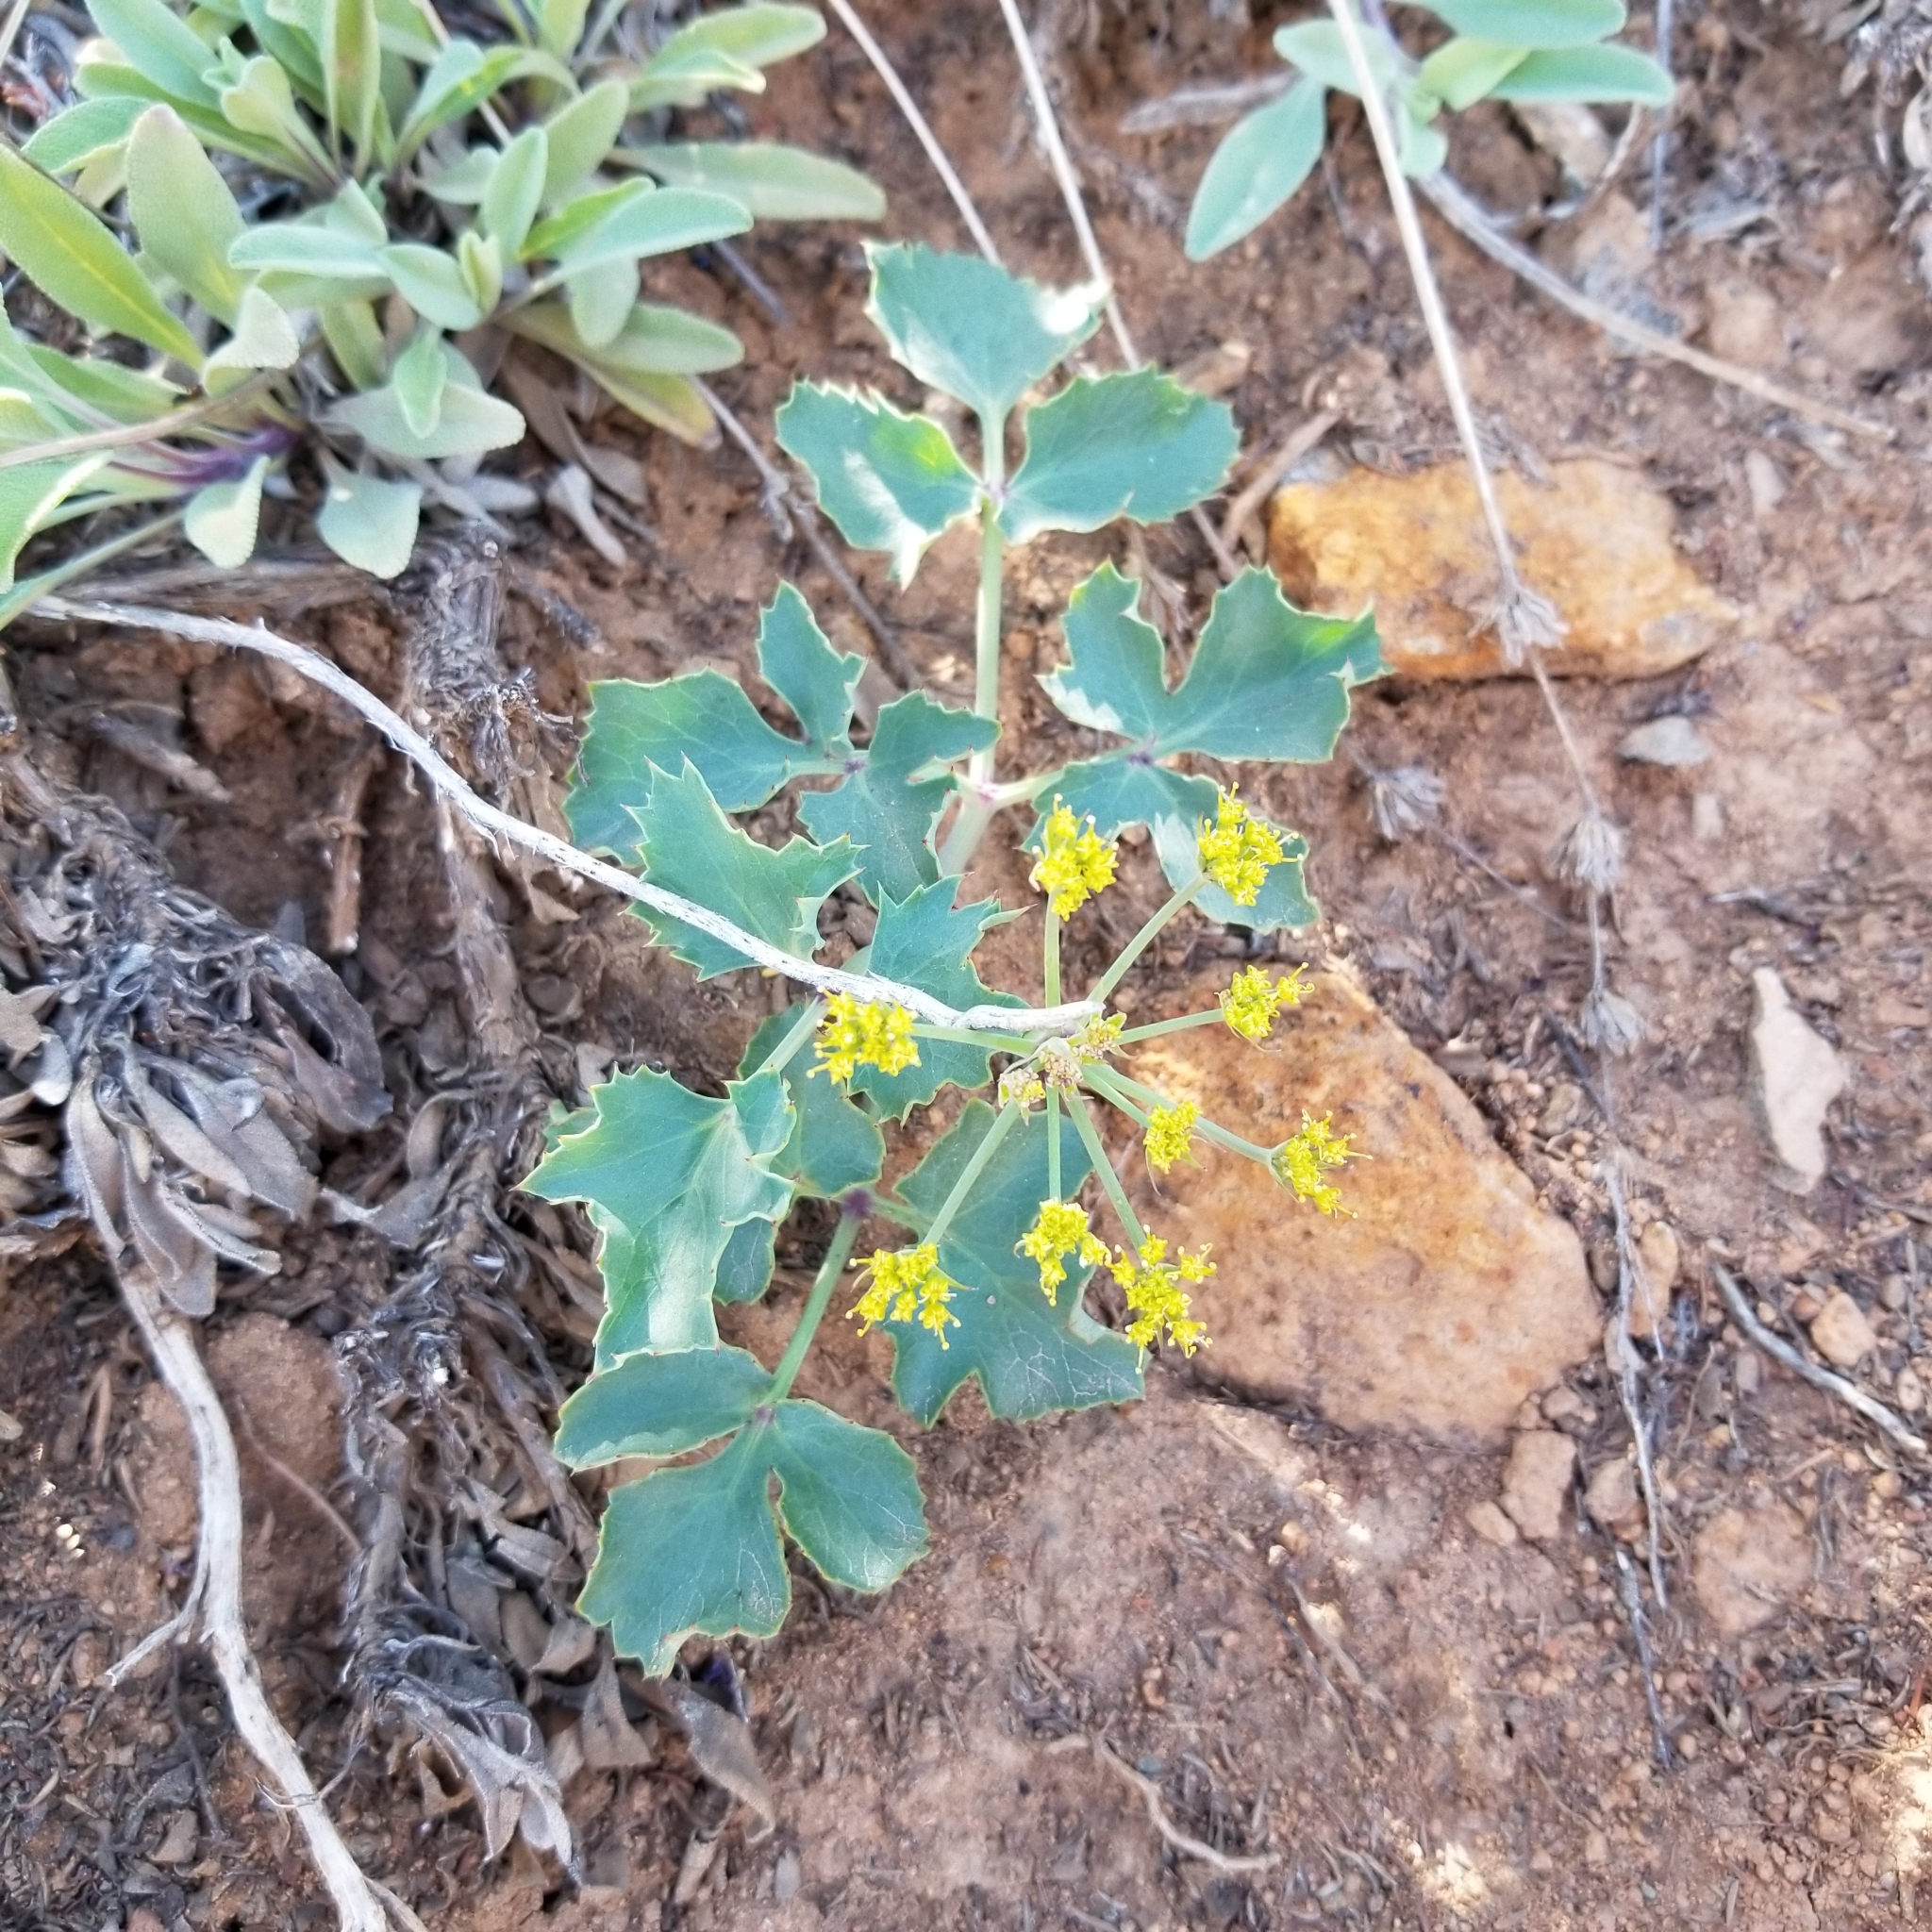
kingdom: Plantae
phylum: Tracheophyta
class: Magnoliopsida
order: Apiales
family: Apiaceae
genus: Lomatium
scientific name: Lomatium lucidum
